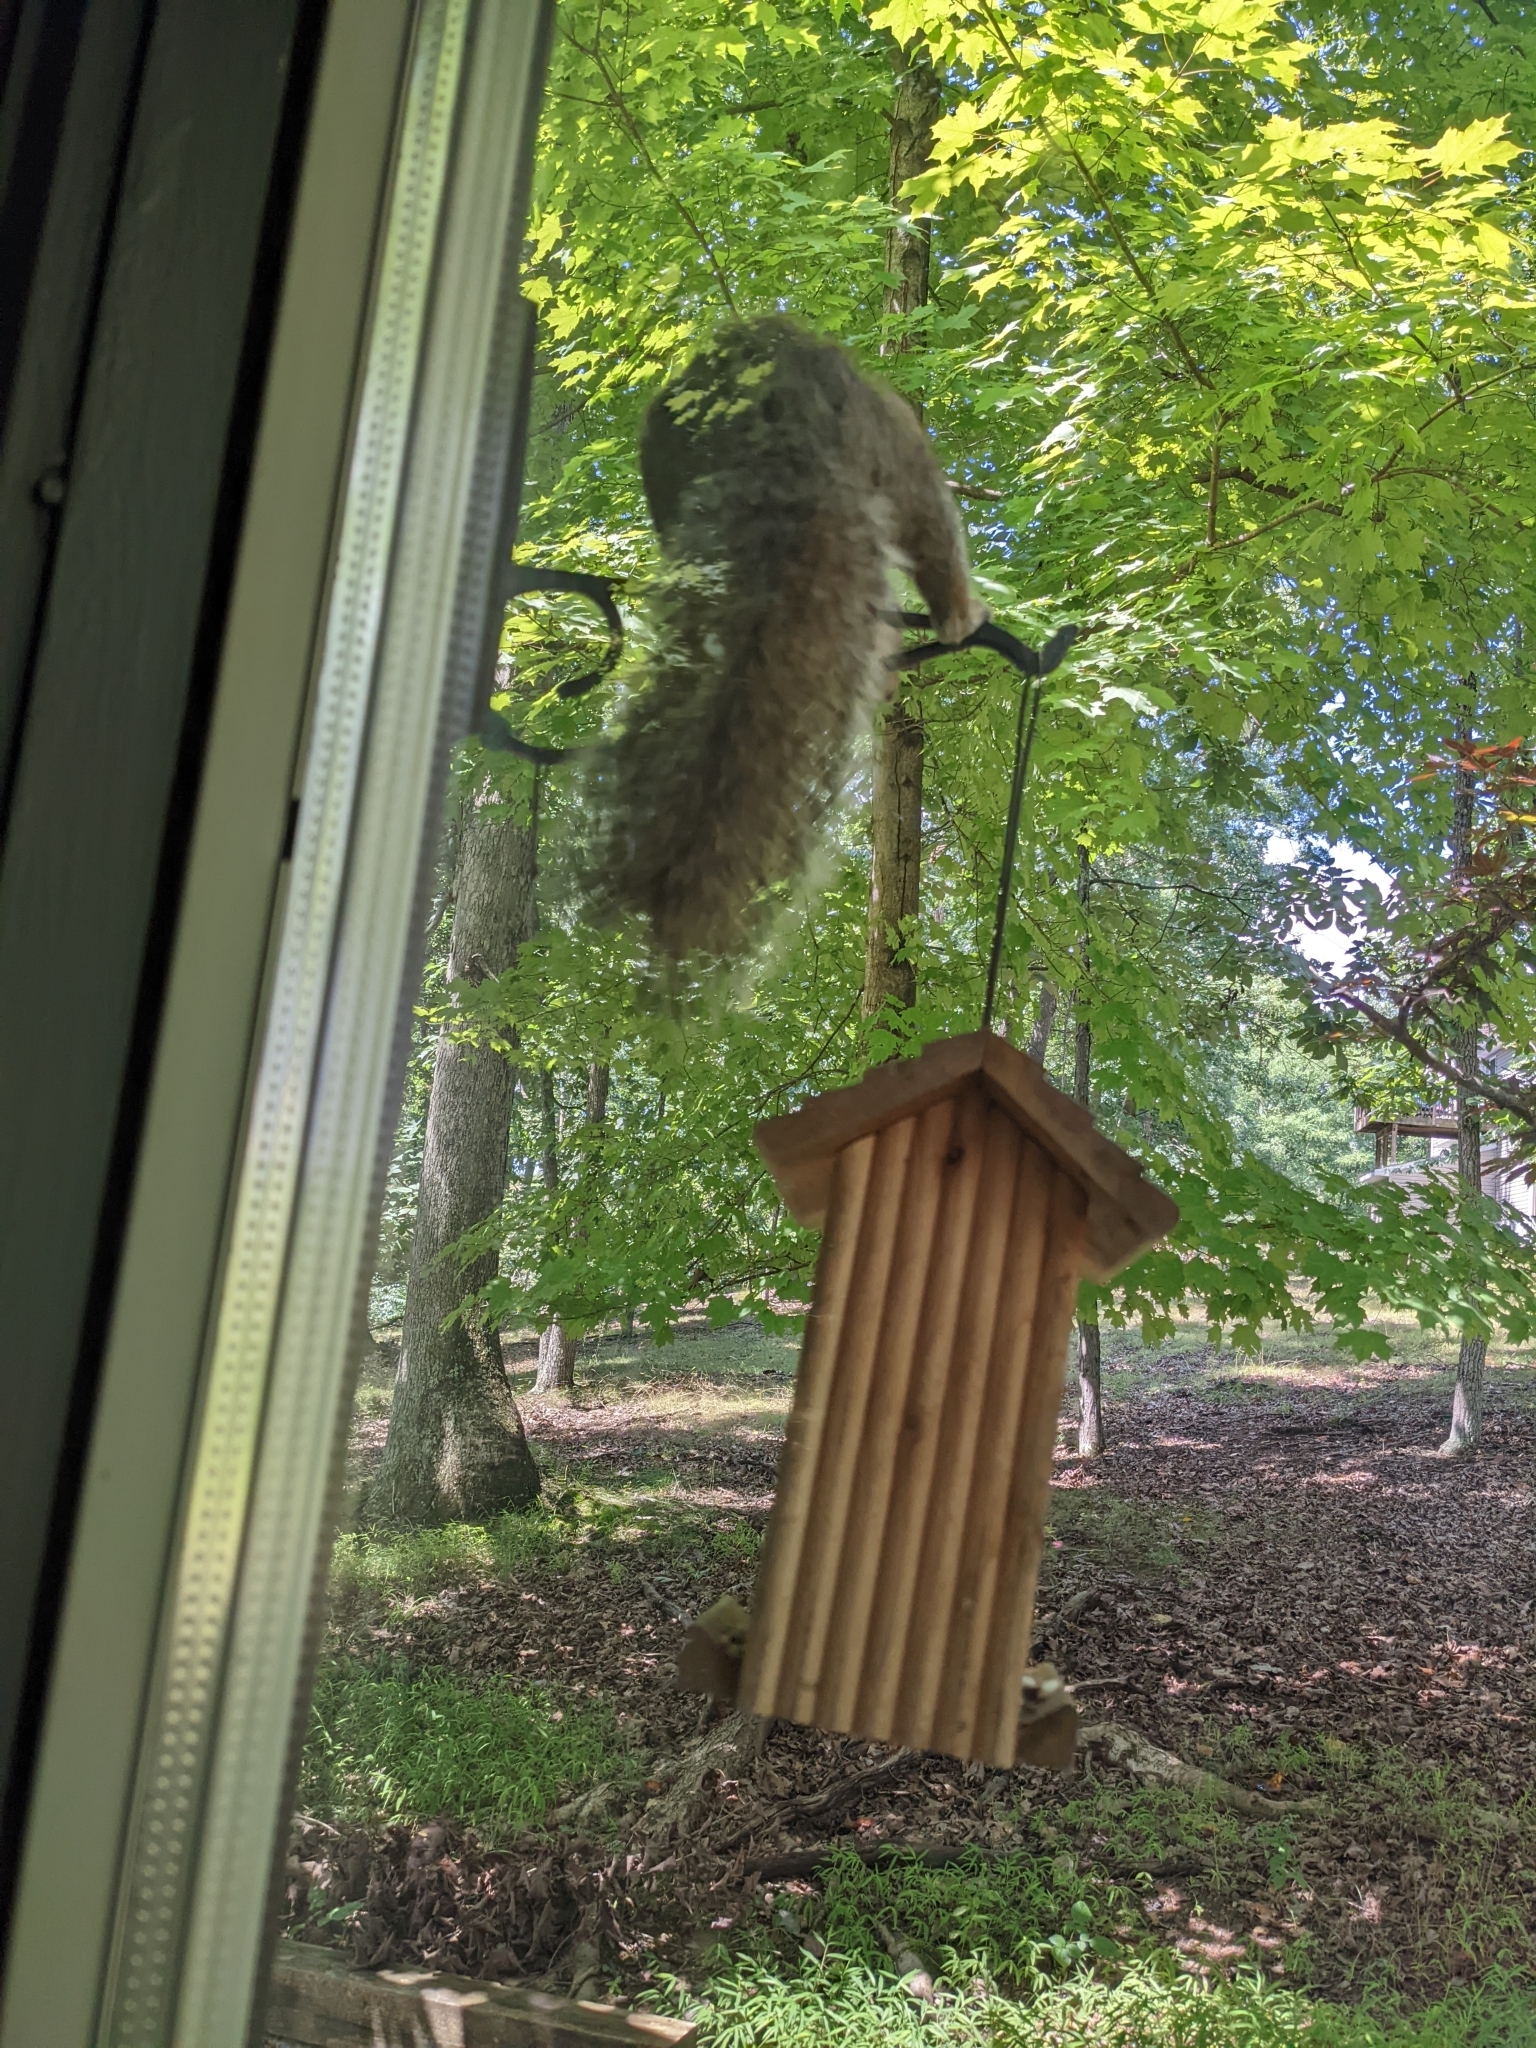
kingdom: Animalia
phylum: Chordata
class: Mammalia
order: Rodentia
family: Sciuridae
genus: Sciurus
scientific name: Sciurus carolinensis
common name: Eastern gray squirrel
